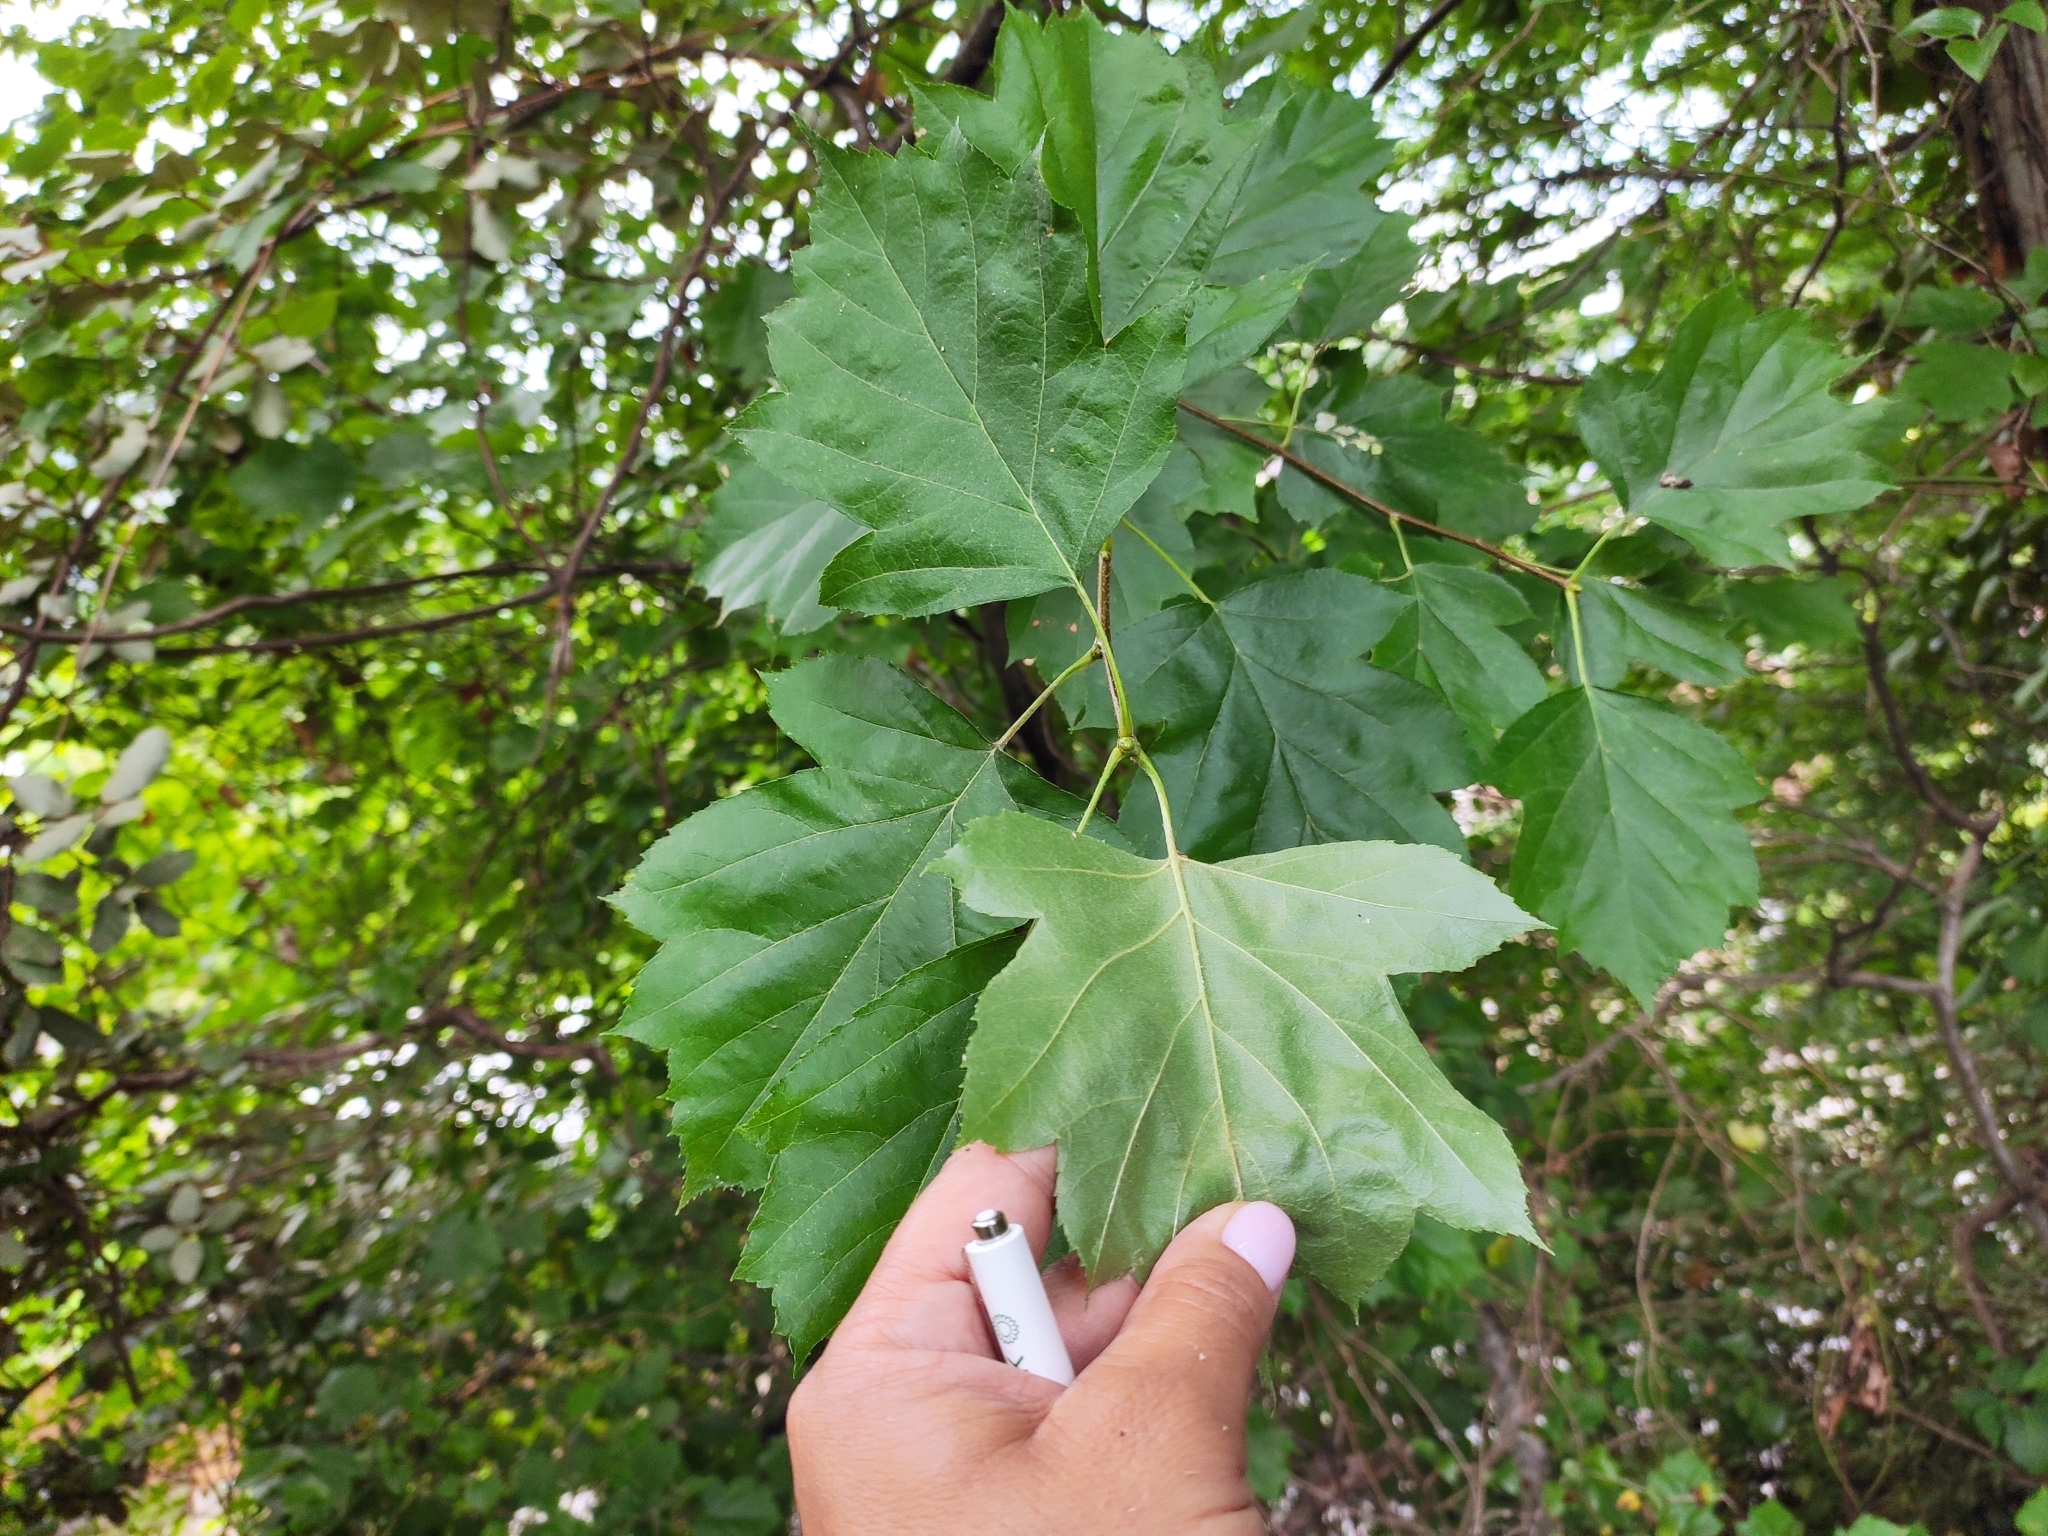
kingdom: Plantae
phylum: Tracheophyta
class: Magnoliopsida
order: Rosales
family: Rosaceae
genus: Torminalis
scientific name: Torminalis glaberrima
